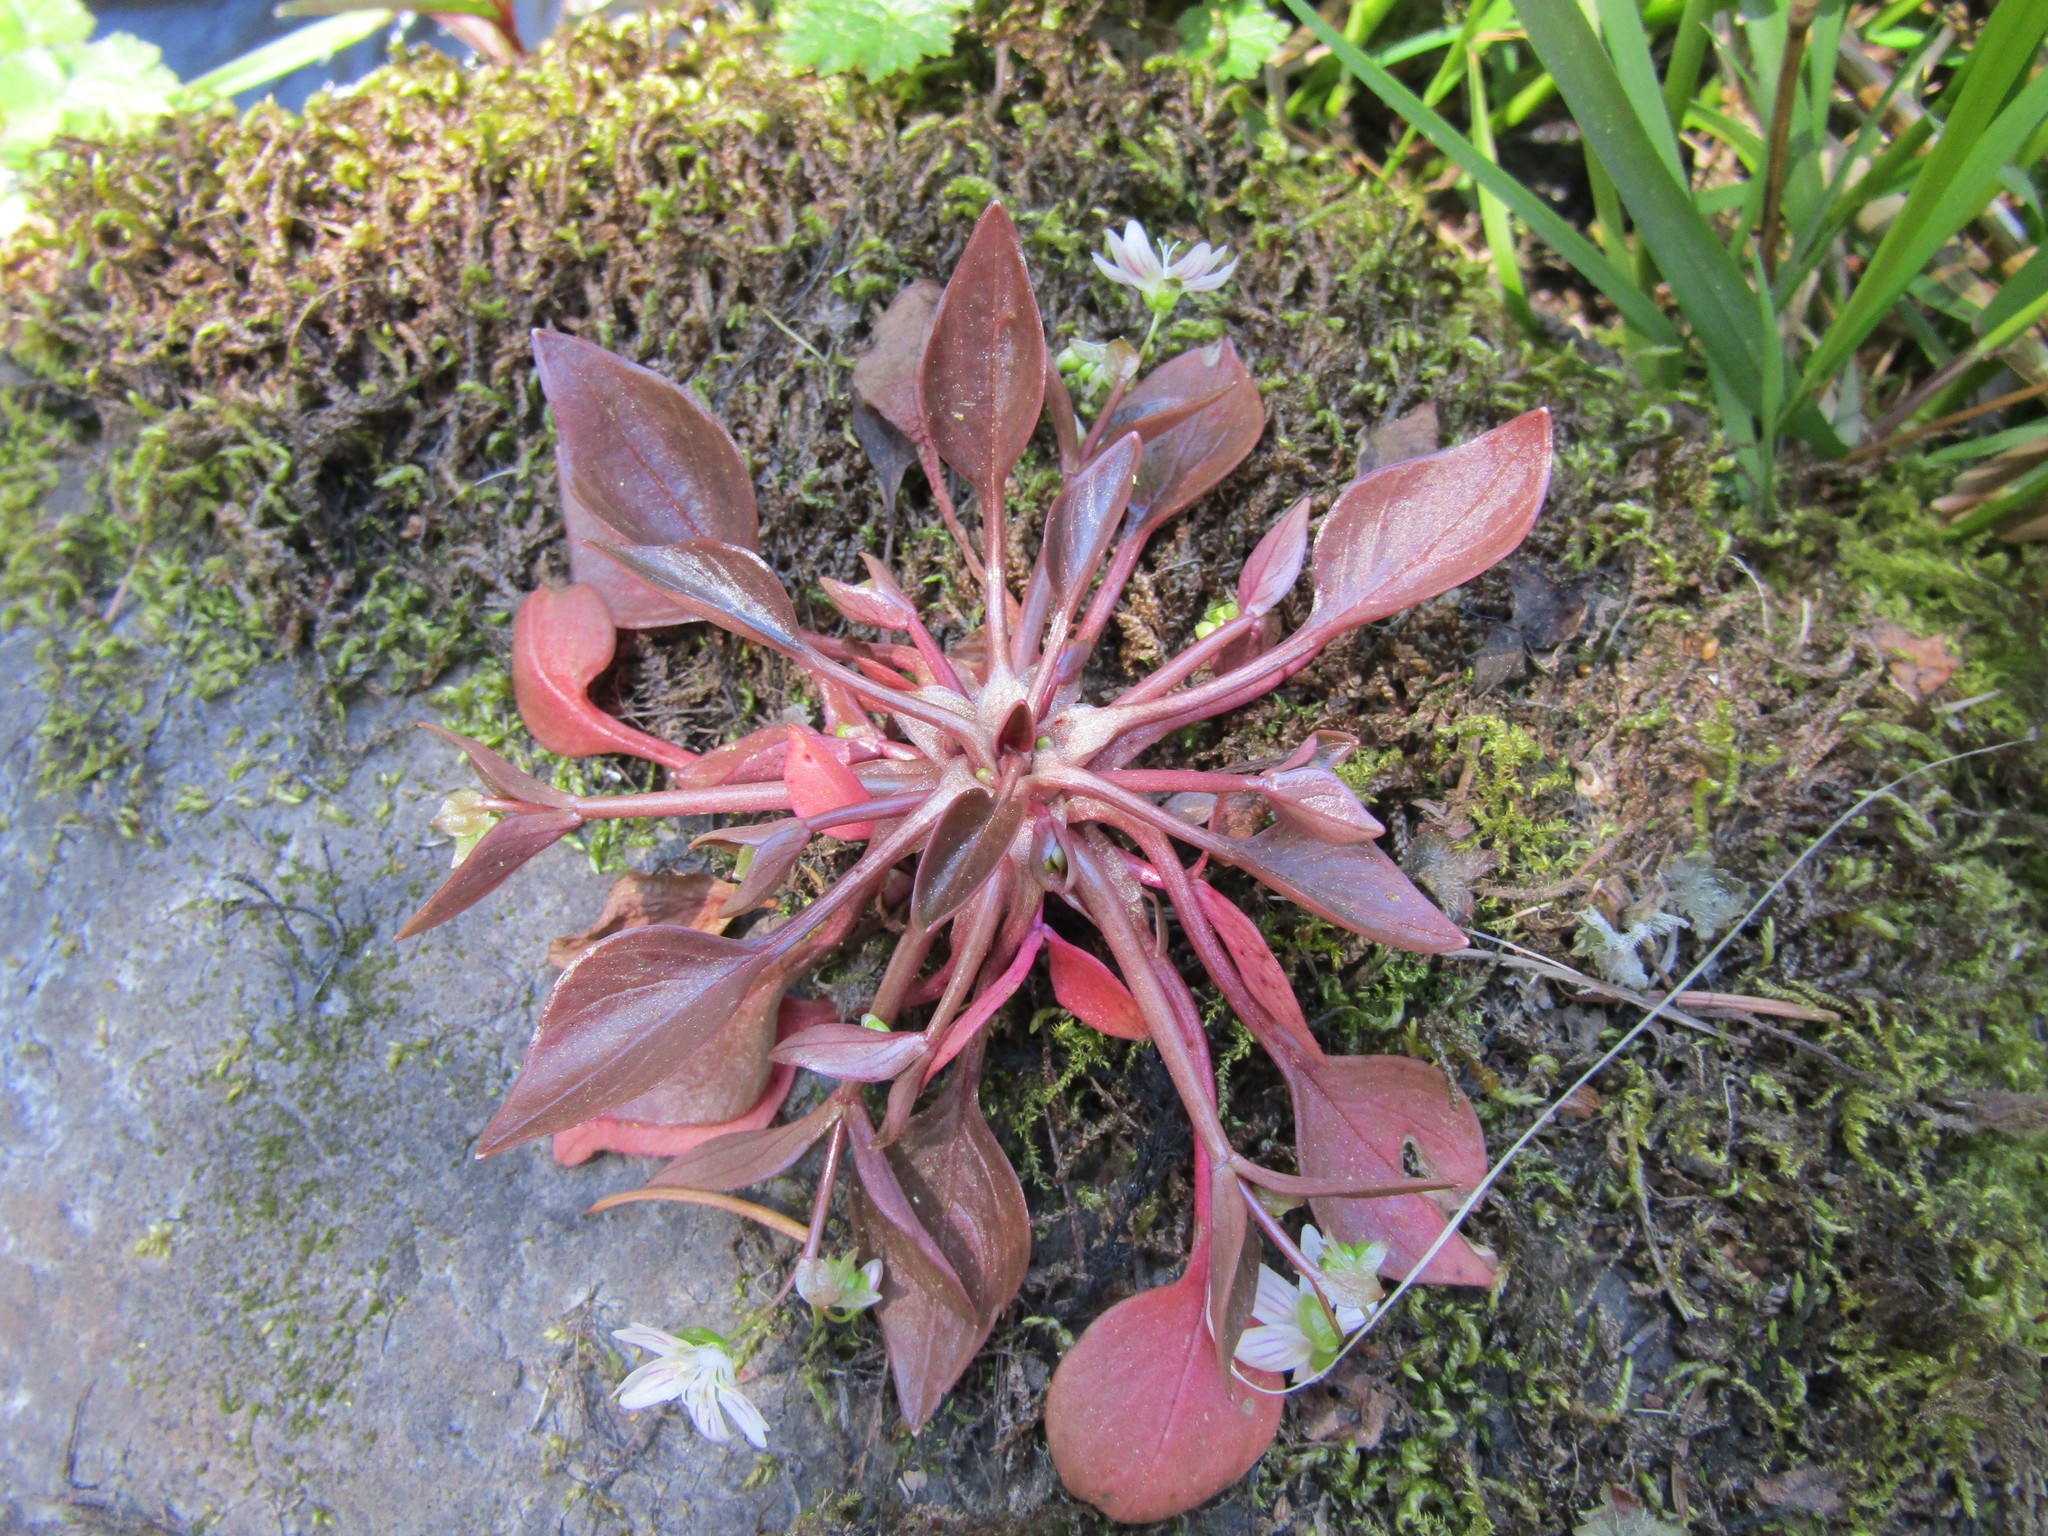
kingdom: Plantae
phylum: Tracheophyta
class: Magnoliopsida
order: Caryophyllales
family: Montiaceae
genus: Claytonia
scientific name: Claytonia sibirica
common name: Pink purslane
